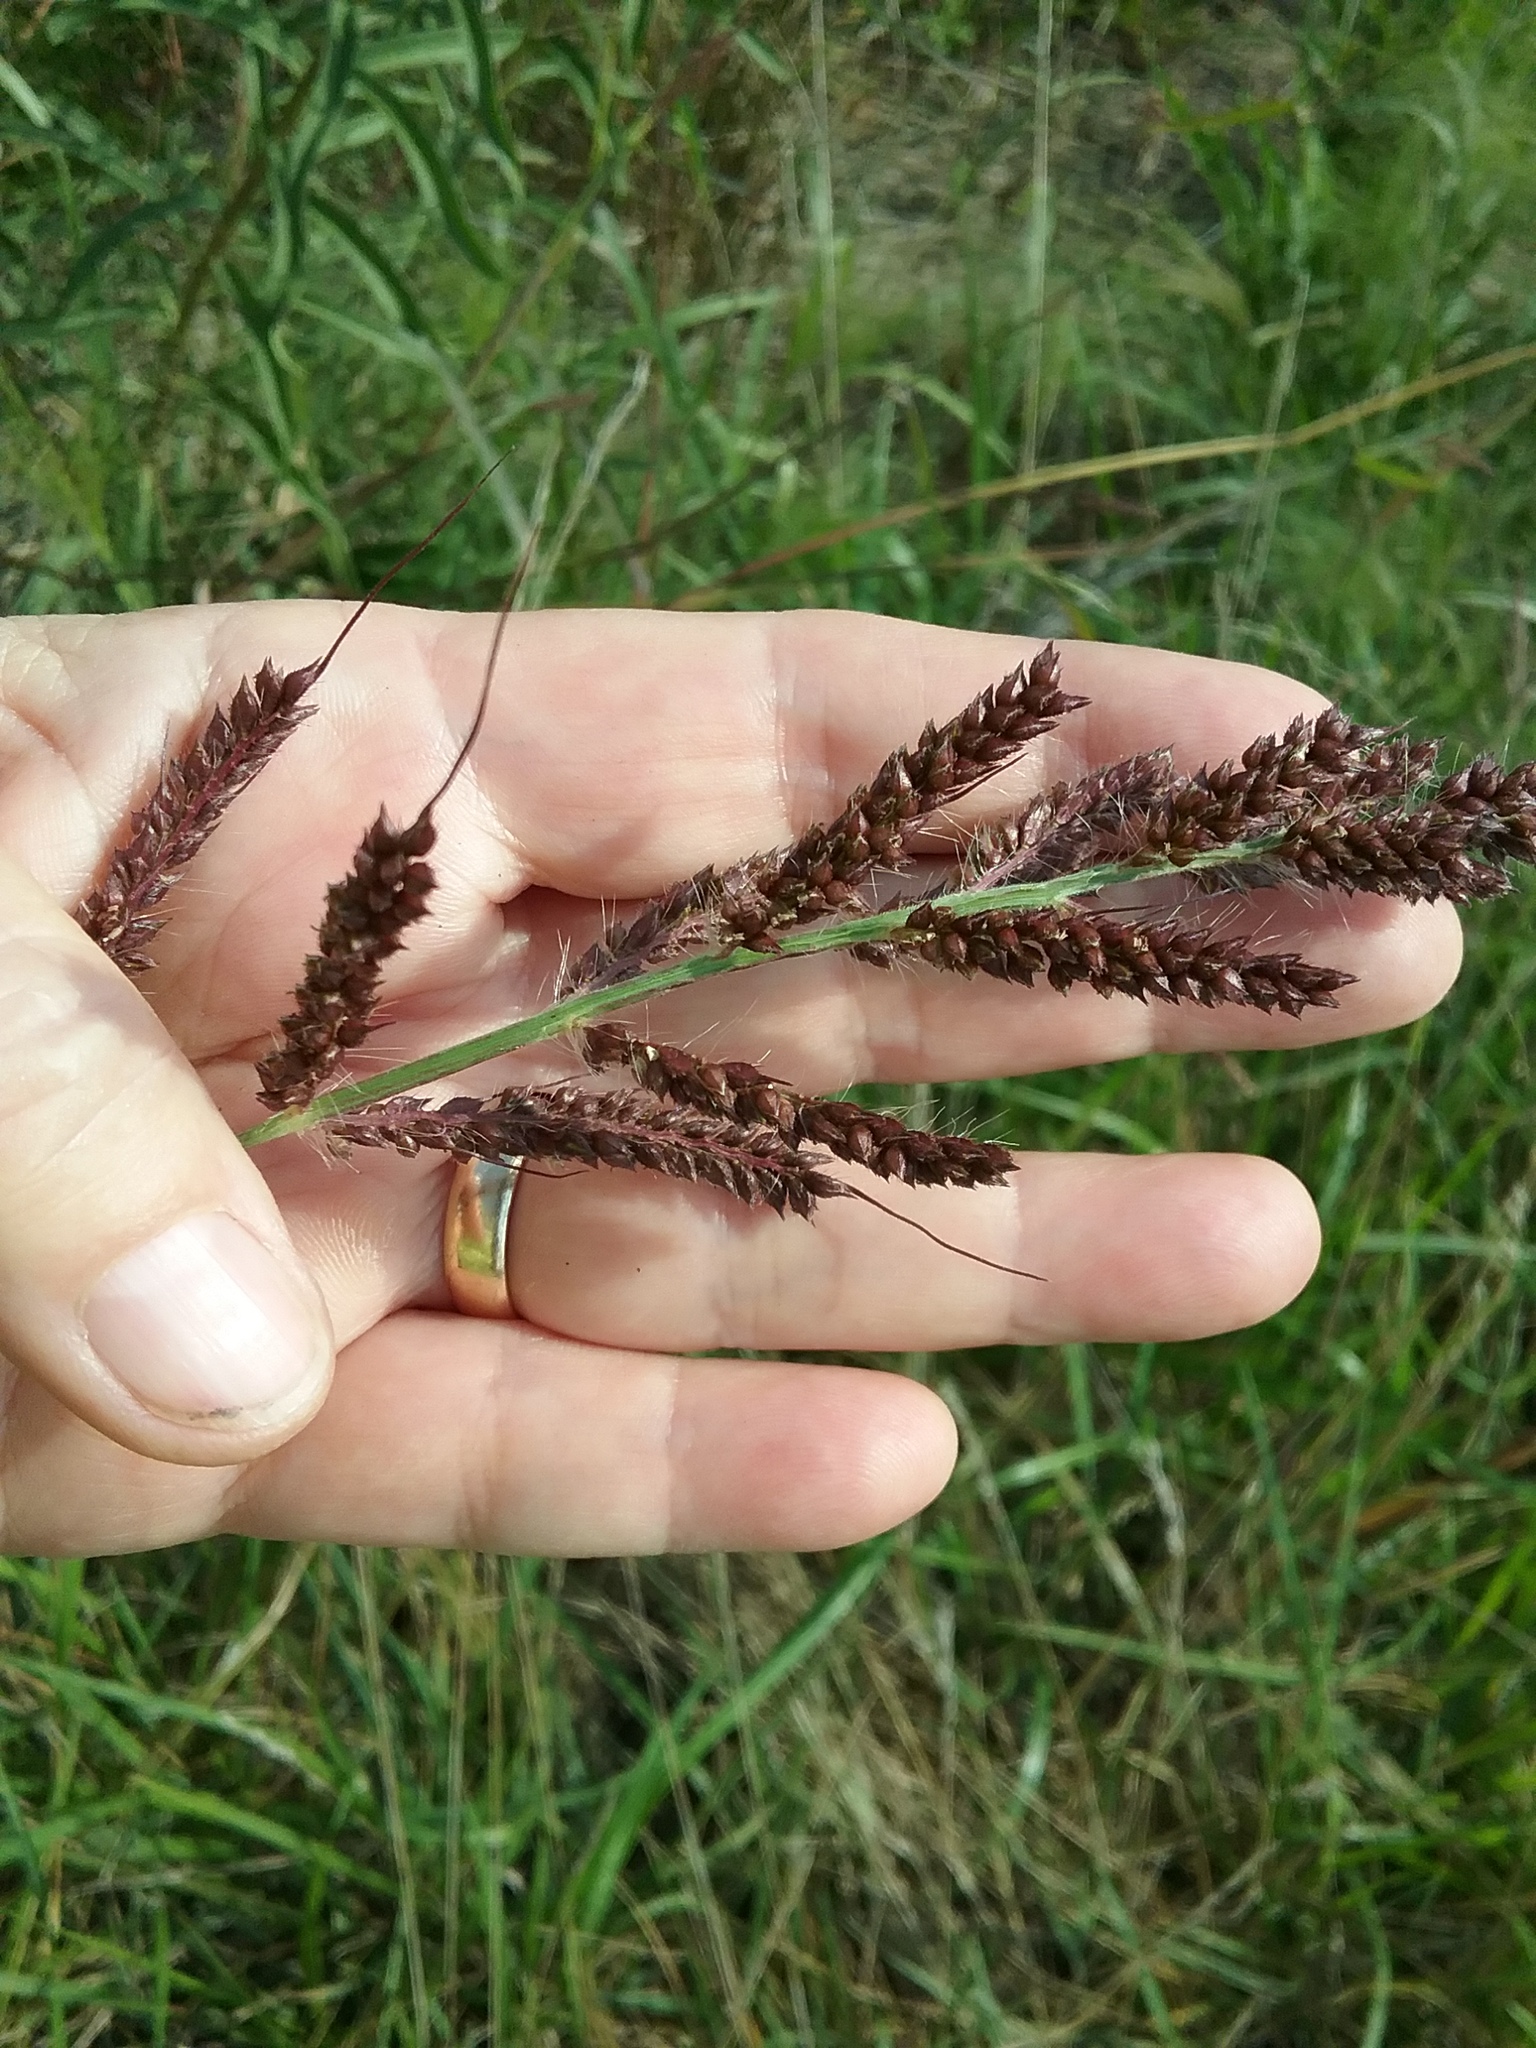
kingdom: Plantae
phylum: Tracheophyta
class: Liliopsida
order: Poales
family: Poaceae
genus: Echinochloa
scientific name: Echinochloa crus-galli
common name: Cockspur
